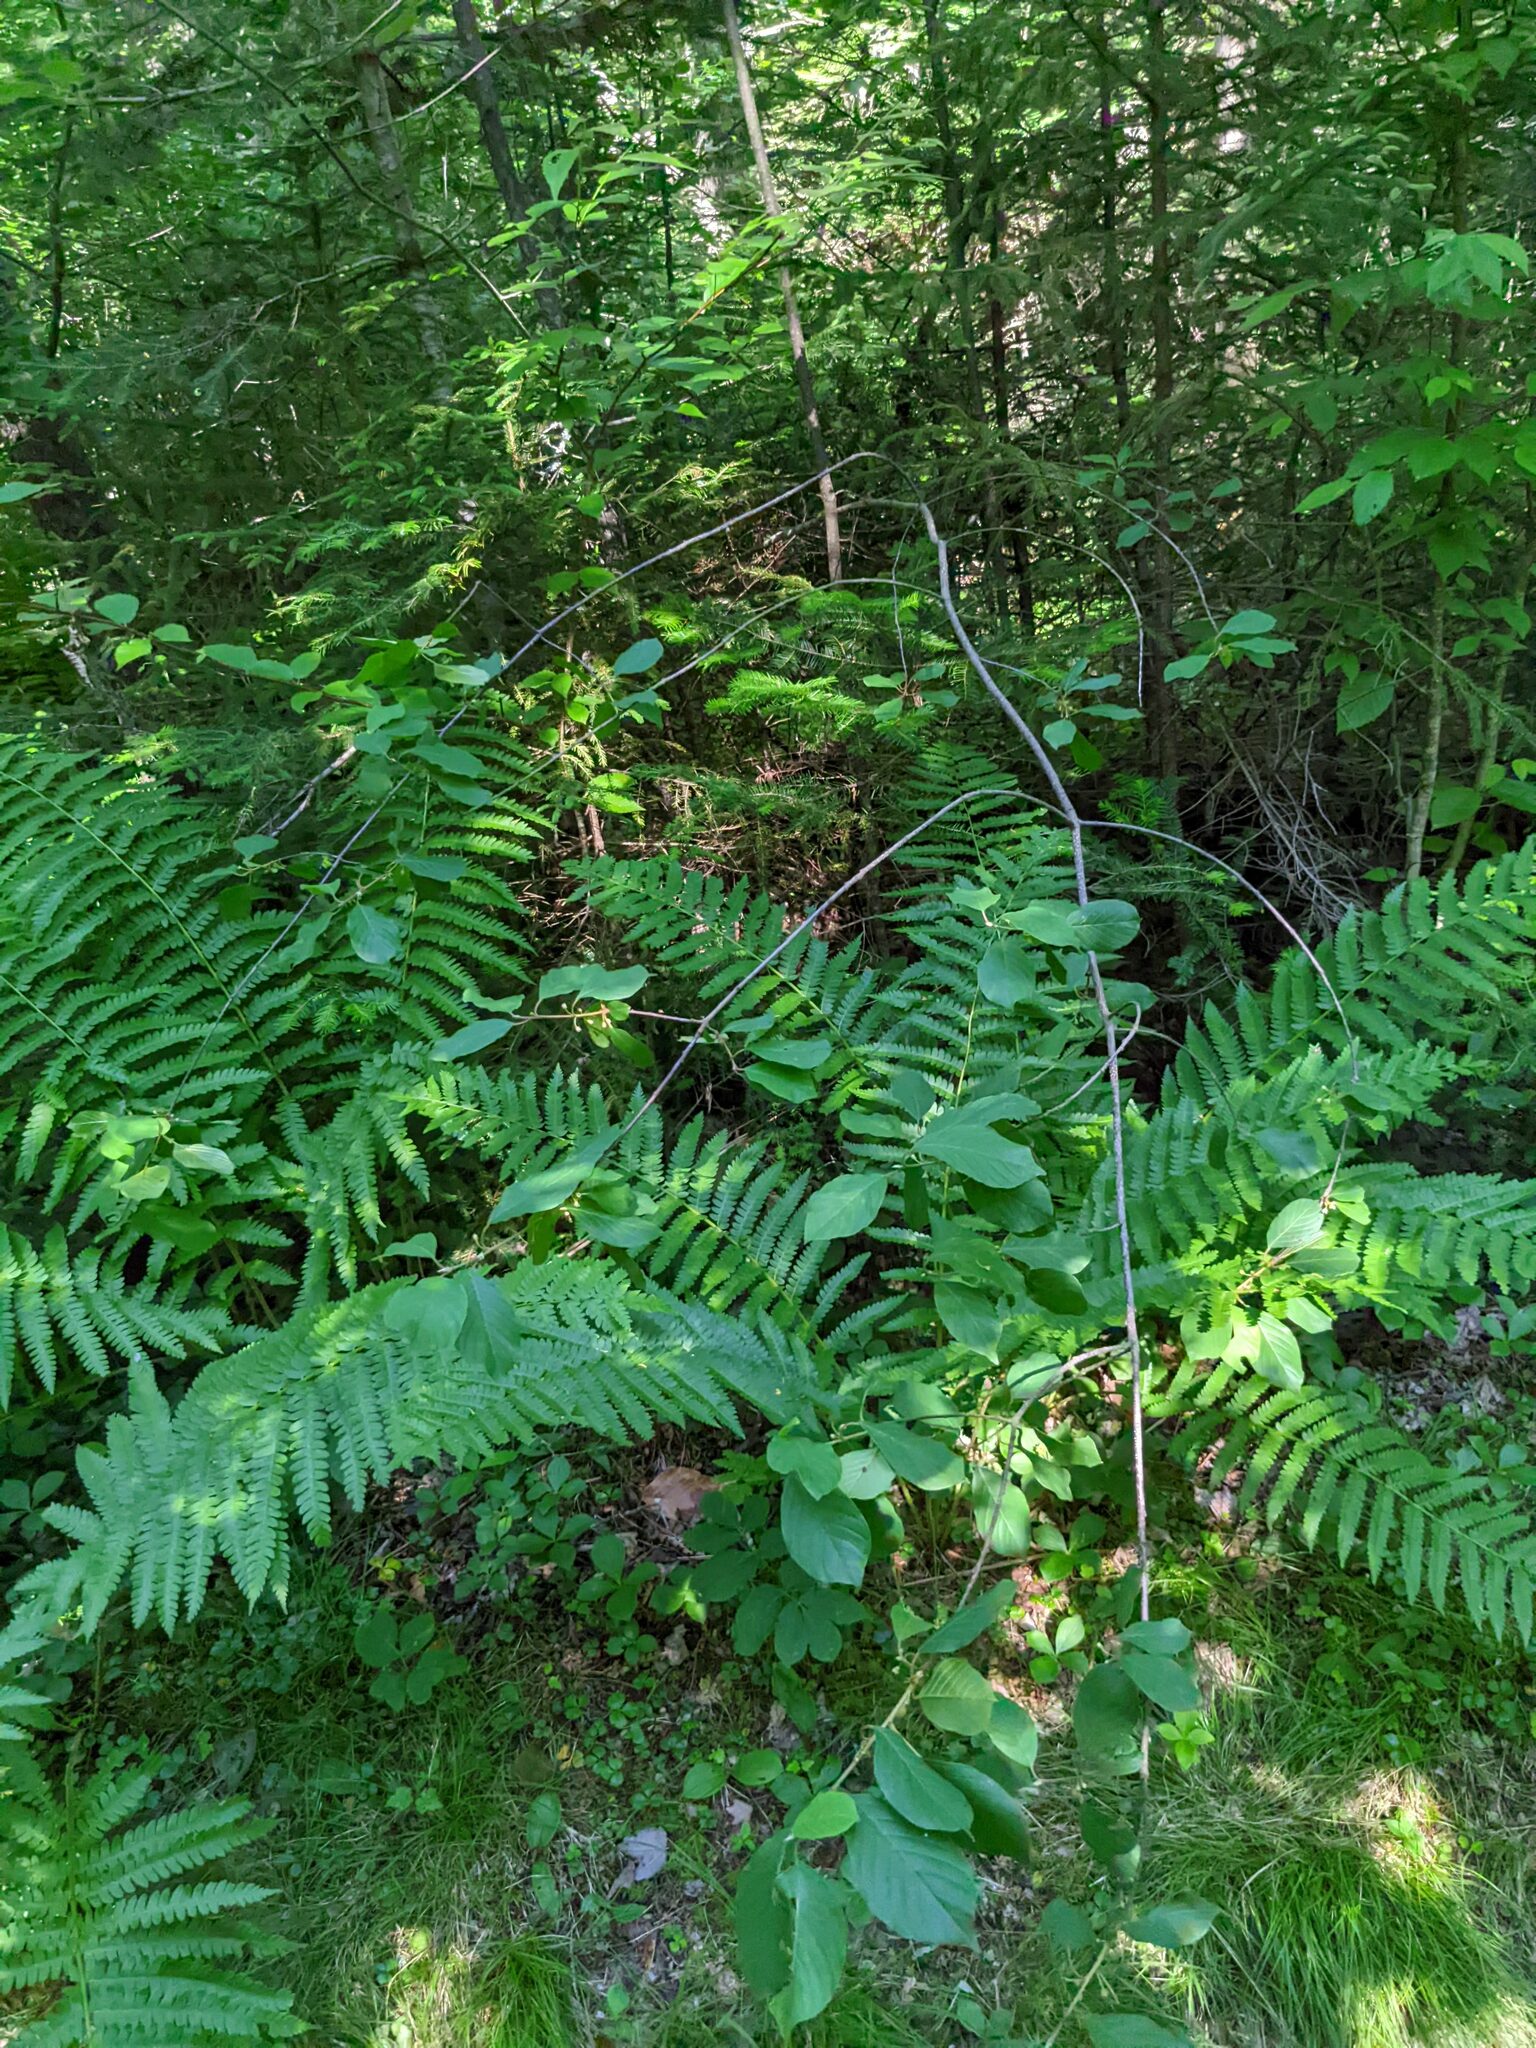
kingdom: Plantae
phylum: Tracheophyta
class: Magnoliopsida
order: Rosales
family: Rhamnaceae
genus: Frangula
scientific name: Frangula alnus
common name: Alder buckthorn
